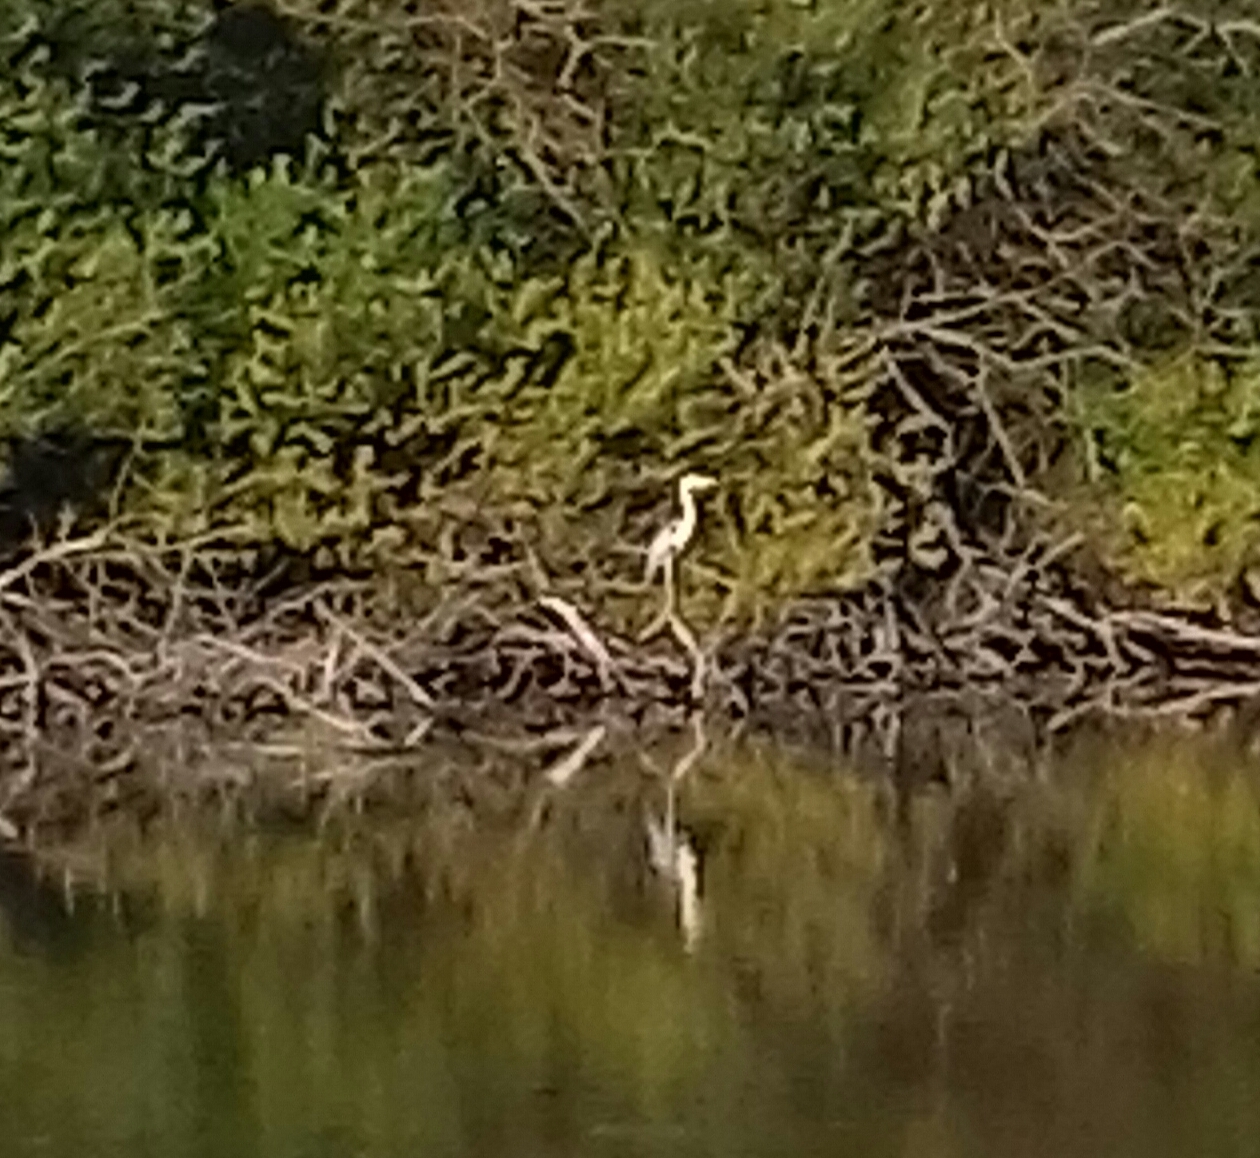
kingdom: Animalia
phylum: Chordata
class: Aves
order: Pelecaniformes
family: Ardeidae
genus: Ardea
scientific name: Ardea cinerea
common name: Grey heron
